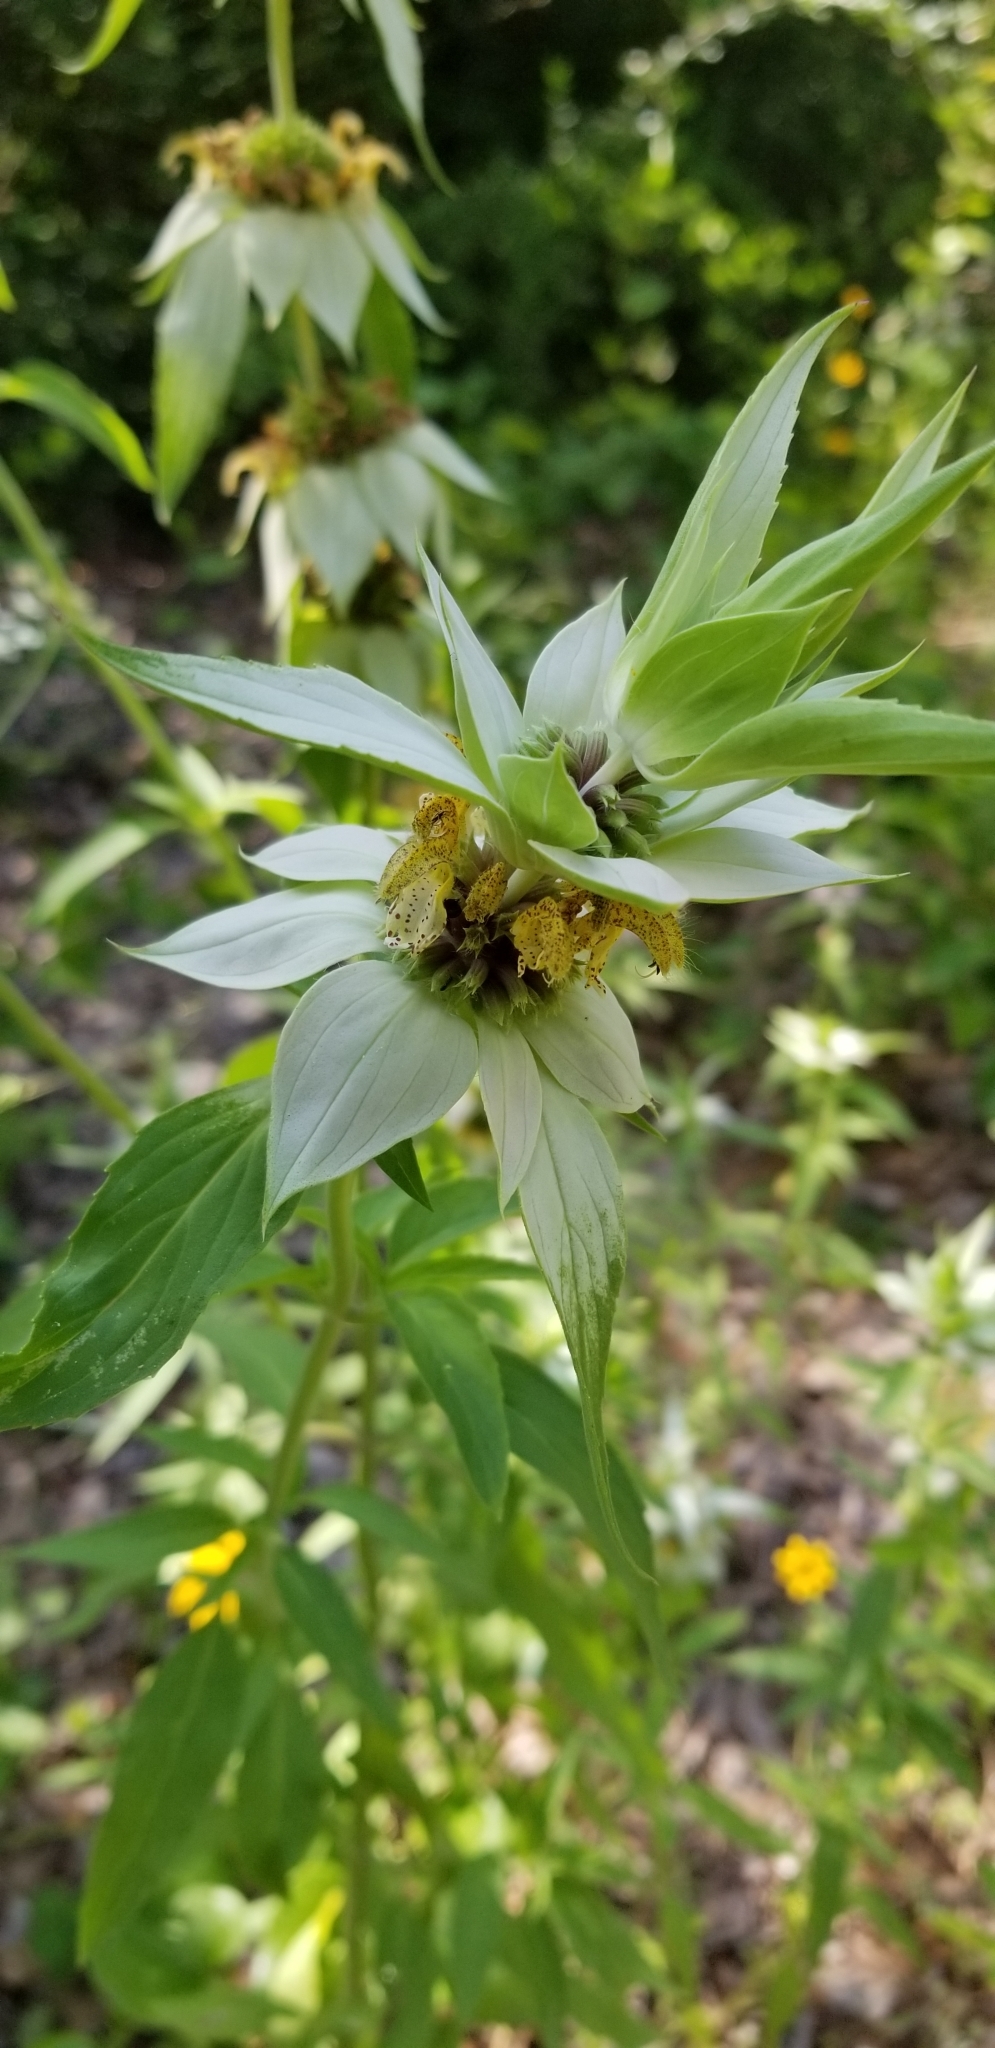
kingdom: Plantae
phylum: Tracheophyta
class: Magnoliopsida
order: Lamiales
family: Lamiaceae
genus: Monarda
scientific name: Monarda punctata
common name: Dotted monarda
